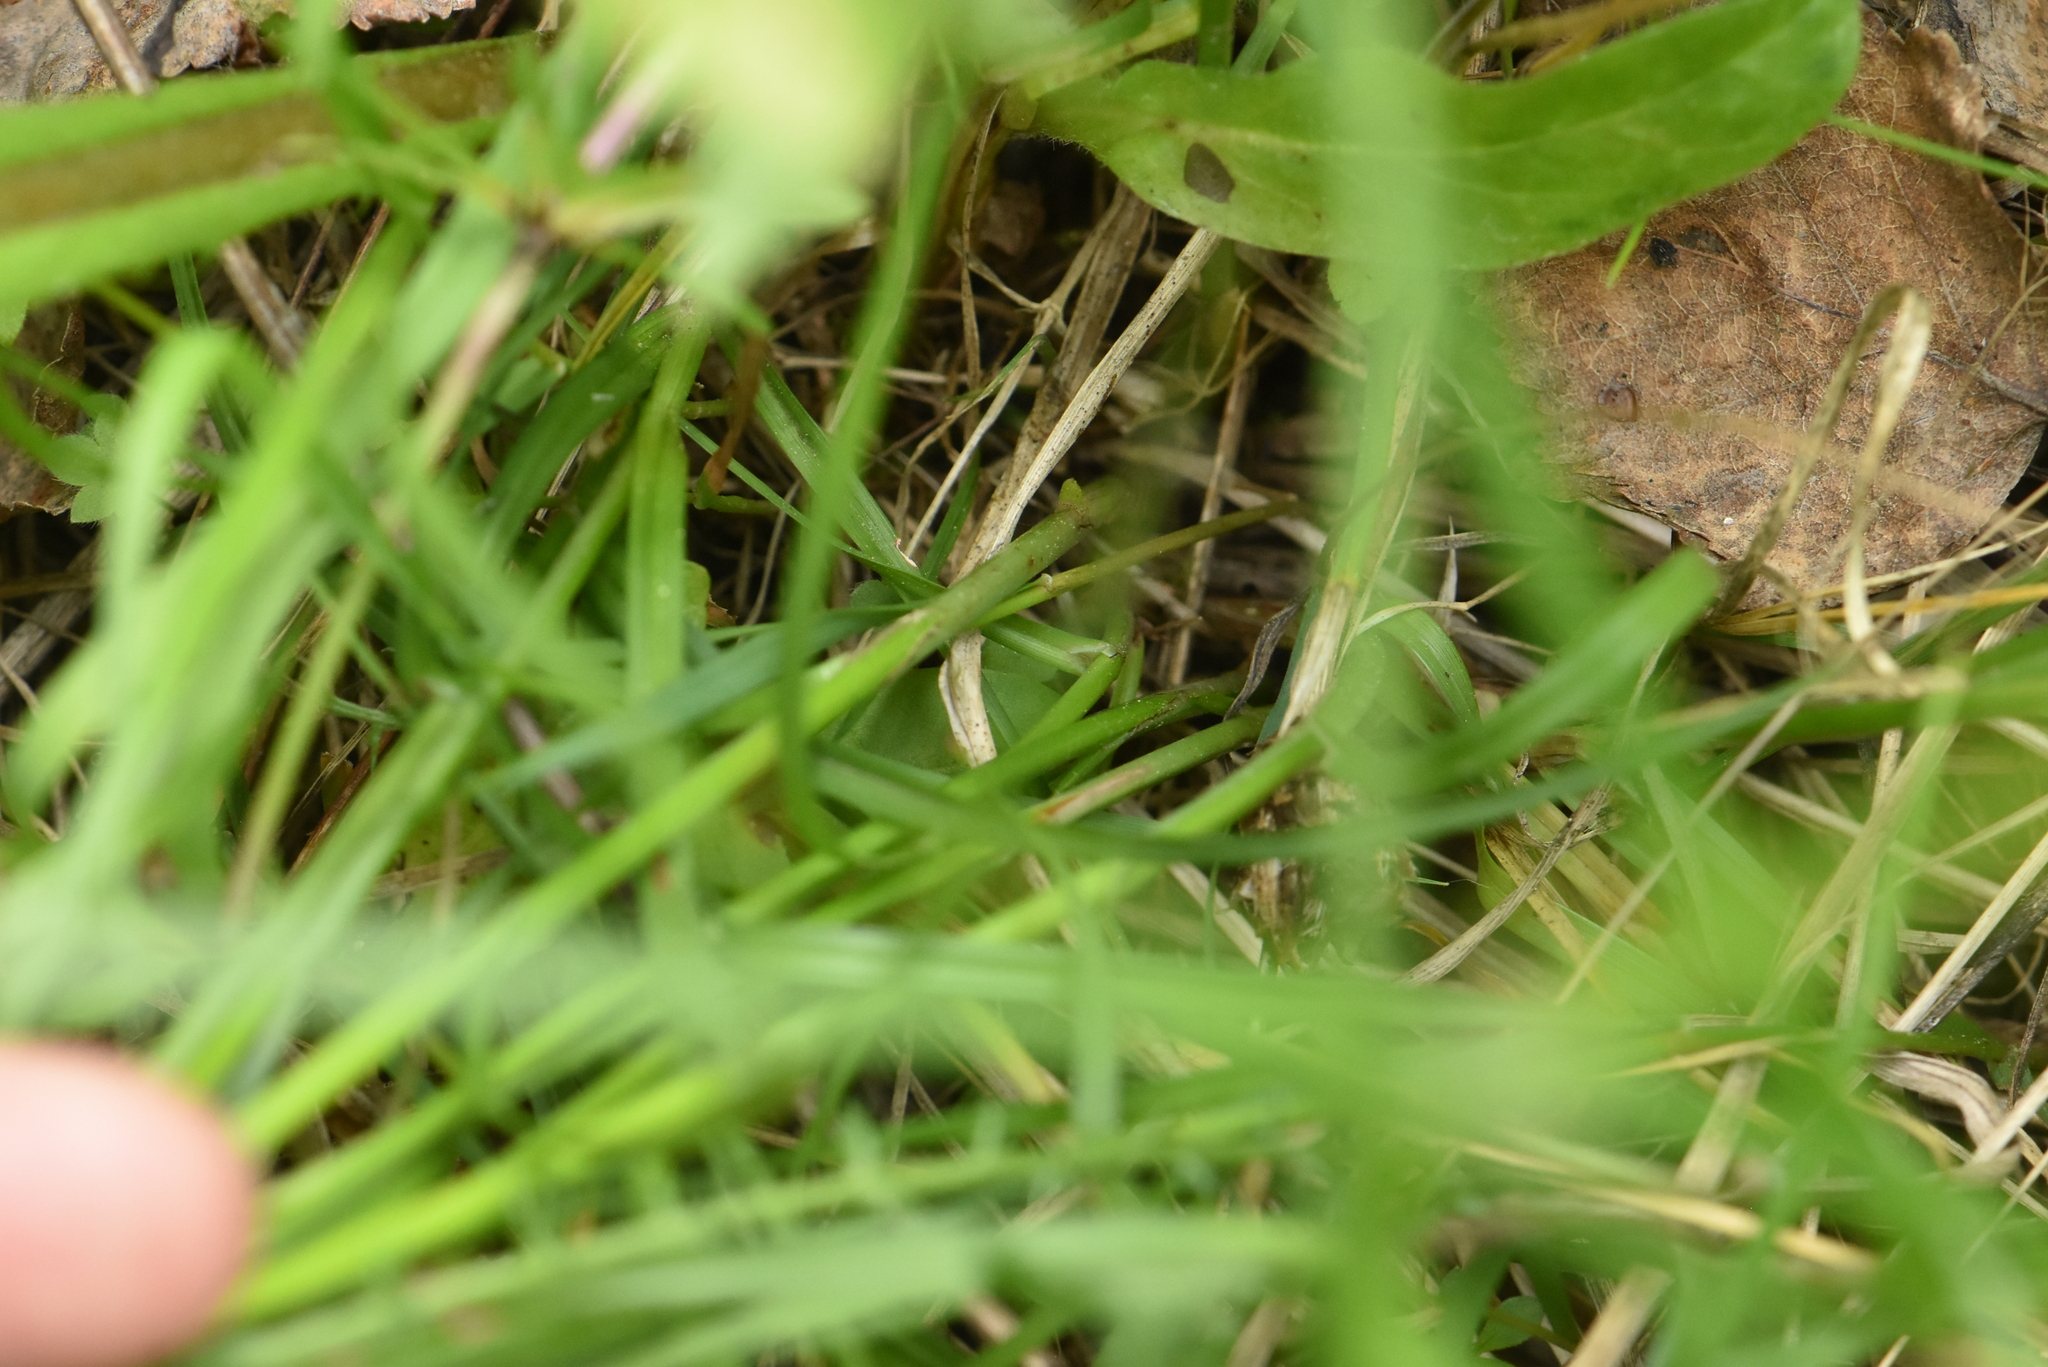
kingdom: Plantae
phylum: Tracheophyta
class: Liliopsida
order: Poales
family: Cyperaceae
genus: Carex
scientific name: Carex spicata
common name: Spiked sedge
